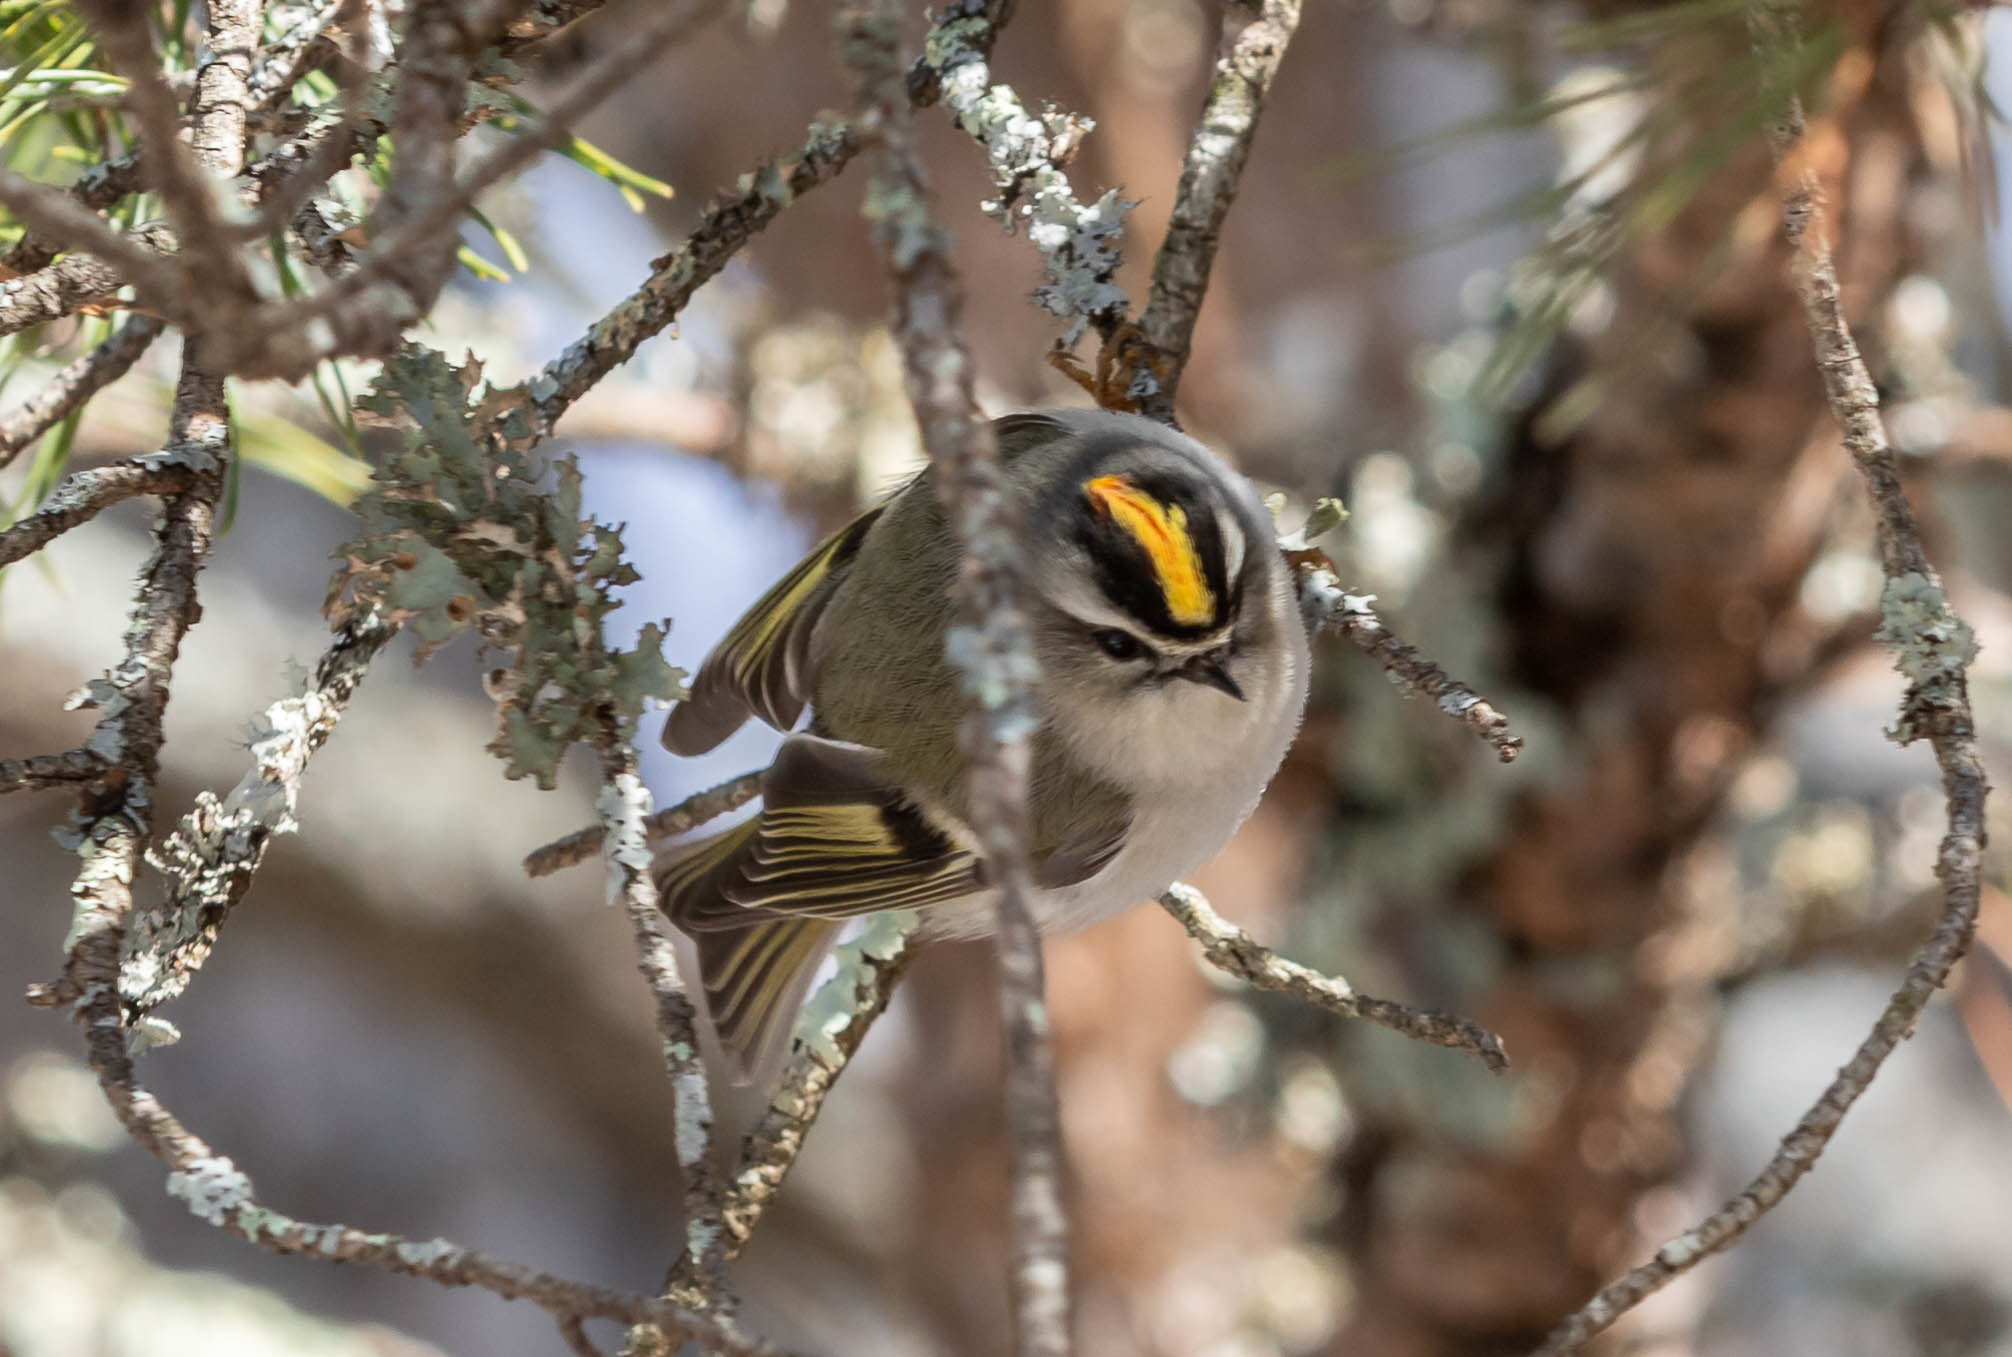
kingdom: Animalia
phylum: Chordata
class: Aves
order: Passeriformes
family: Regulidae
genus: Regulus
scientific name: Regulus satrapa
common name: Golden-crowned kinglet
